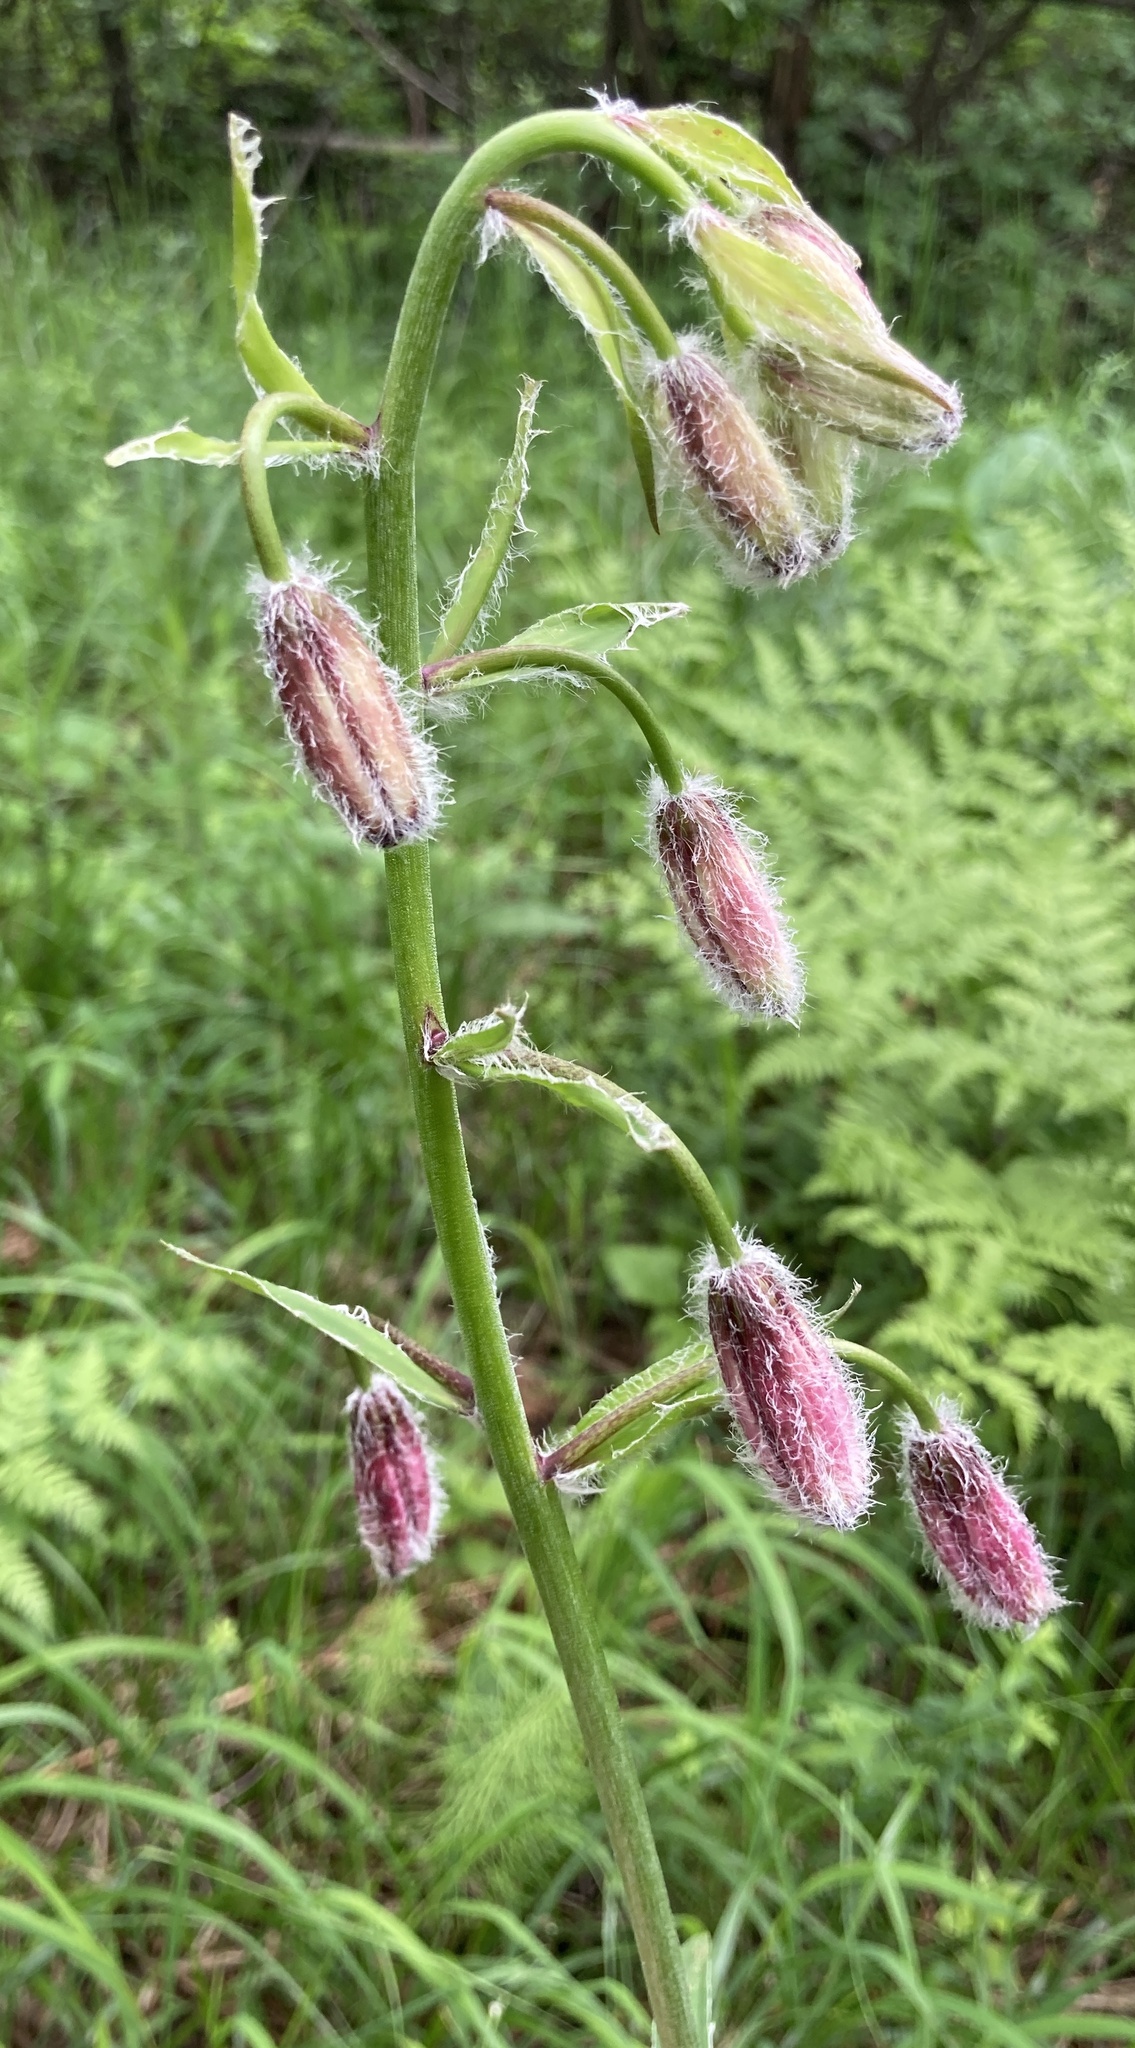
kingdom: Plantae
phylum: Tracheophyta
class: Liliopsida
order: Liliales
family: Liliaceae
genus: Lilium
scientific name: Lilium martagon
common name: Martagon lily
